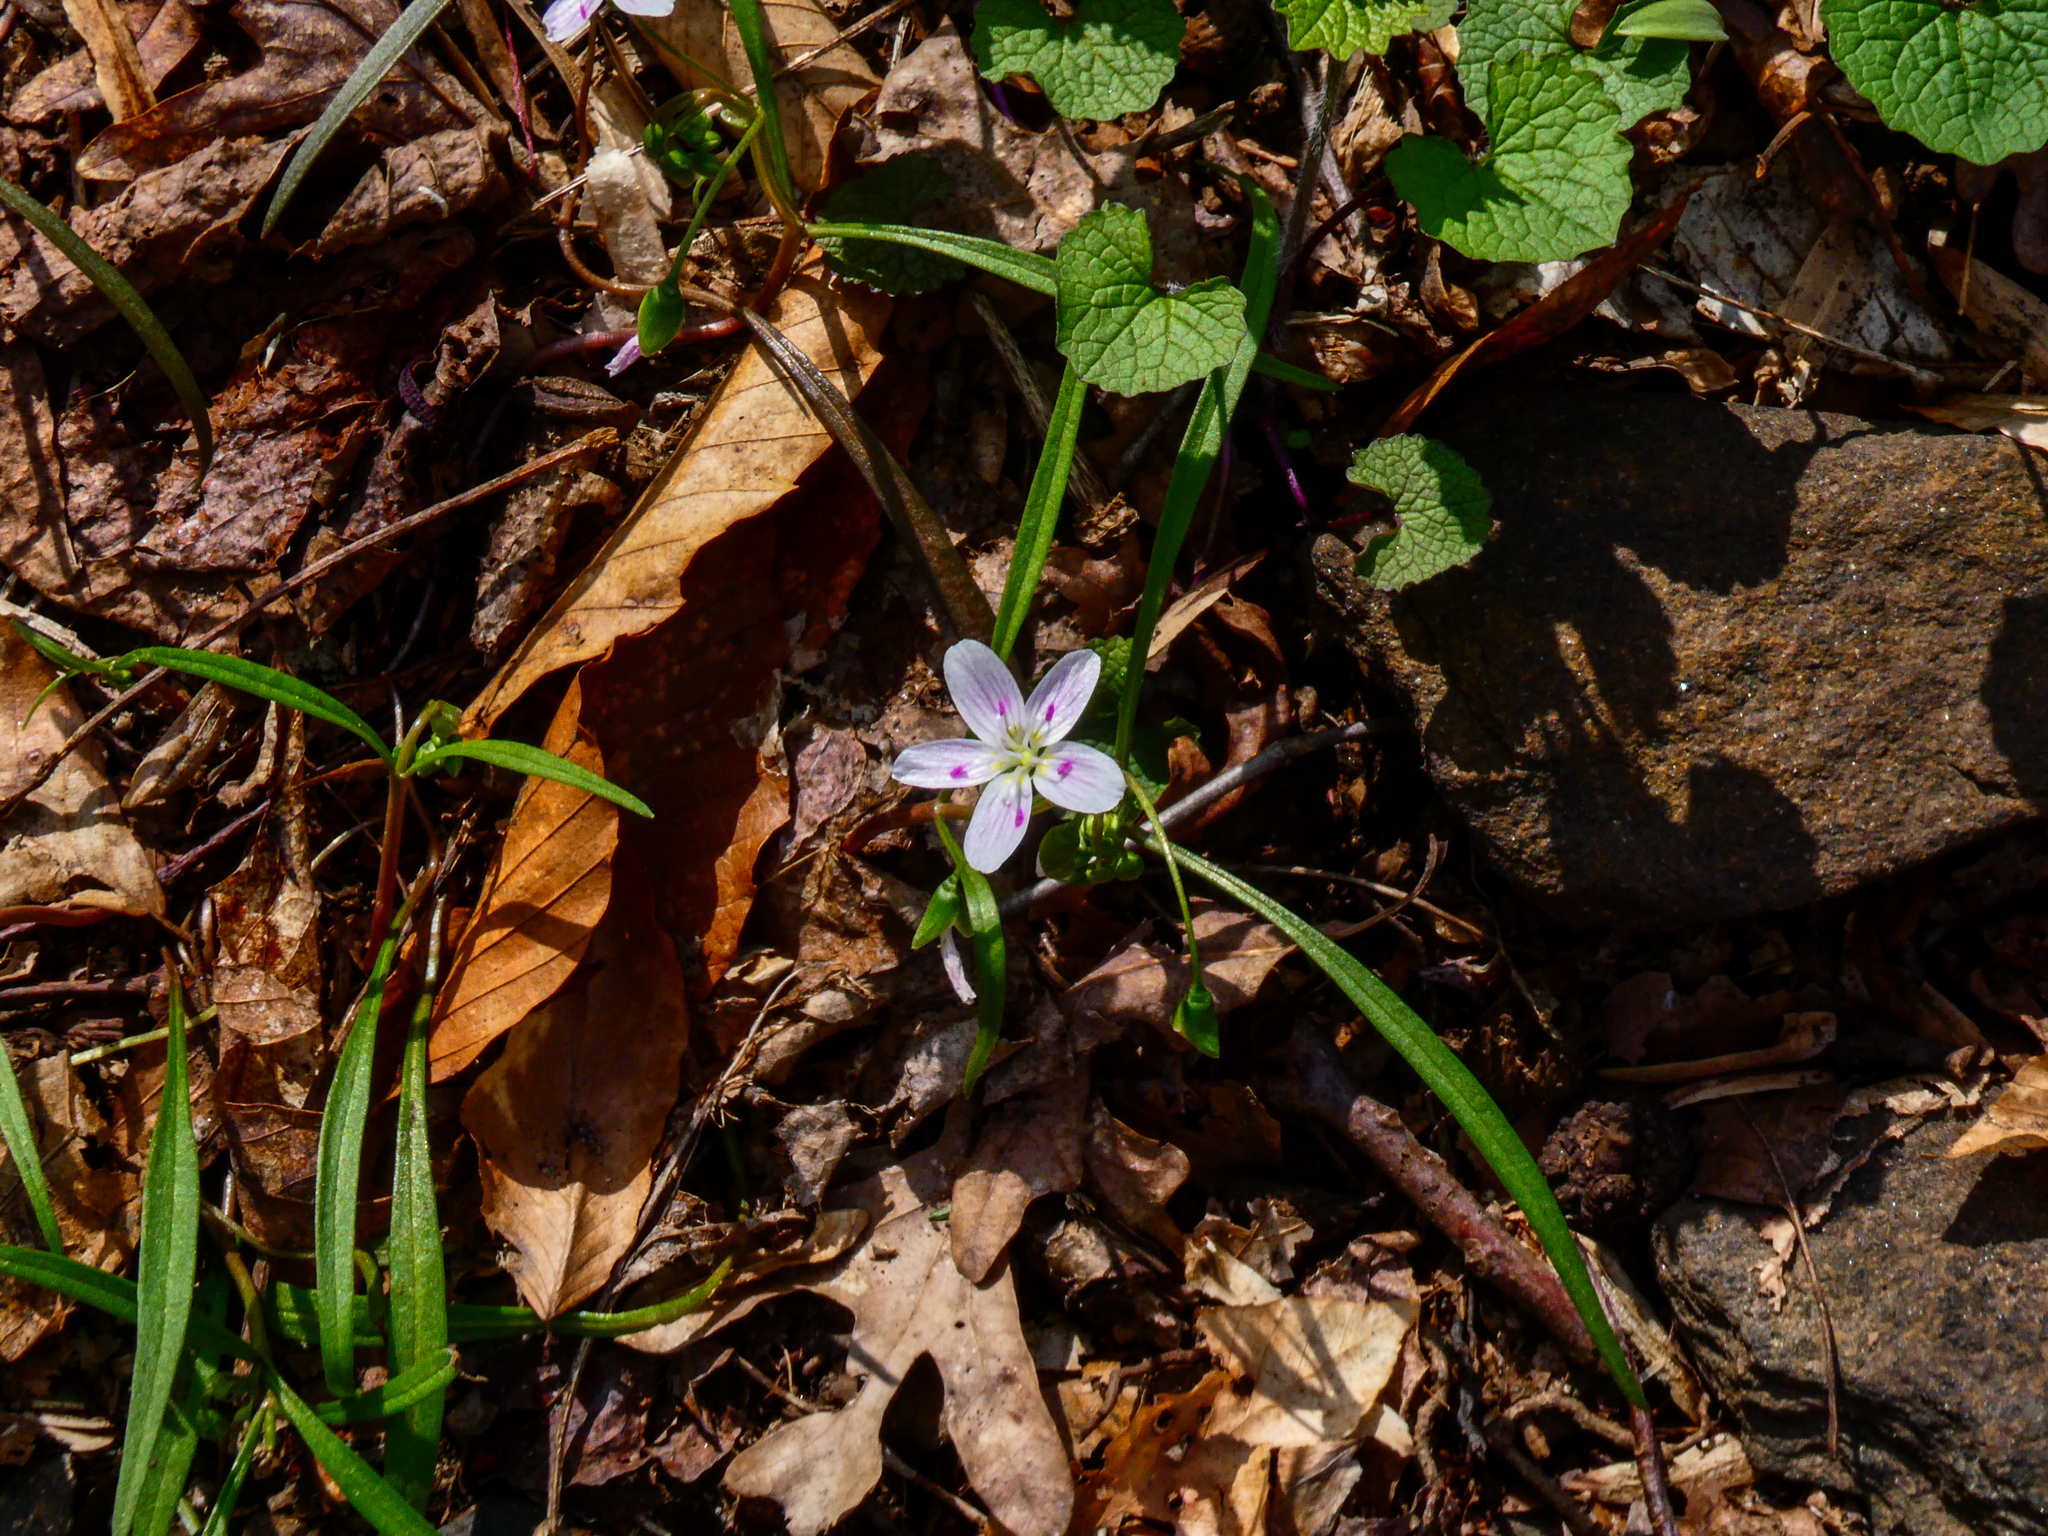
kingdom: Plantae
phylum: Tracheophyta
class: Magnoliopsida
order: Caryophyllales
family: Montiaceae
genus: Claytonia
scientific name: Claytonia virginica
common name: Virginia springbeauty
